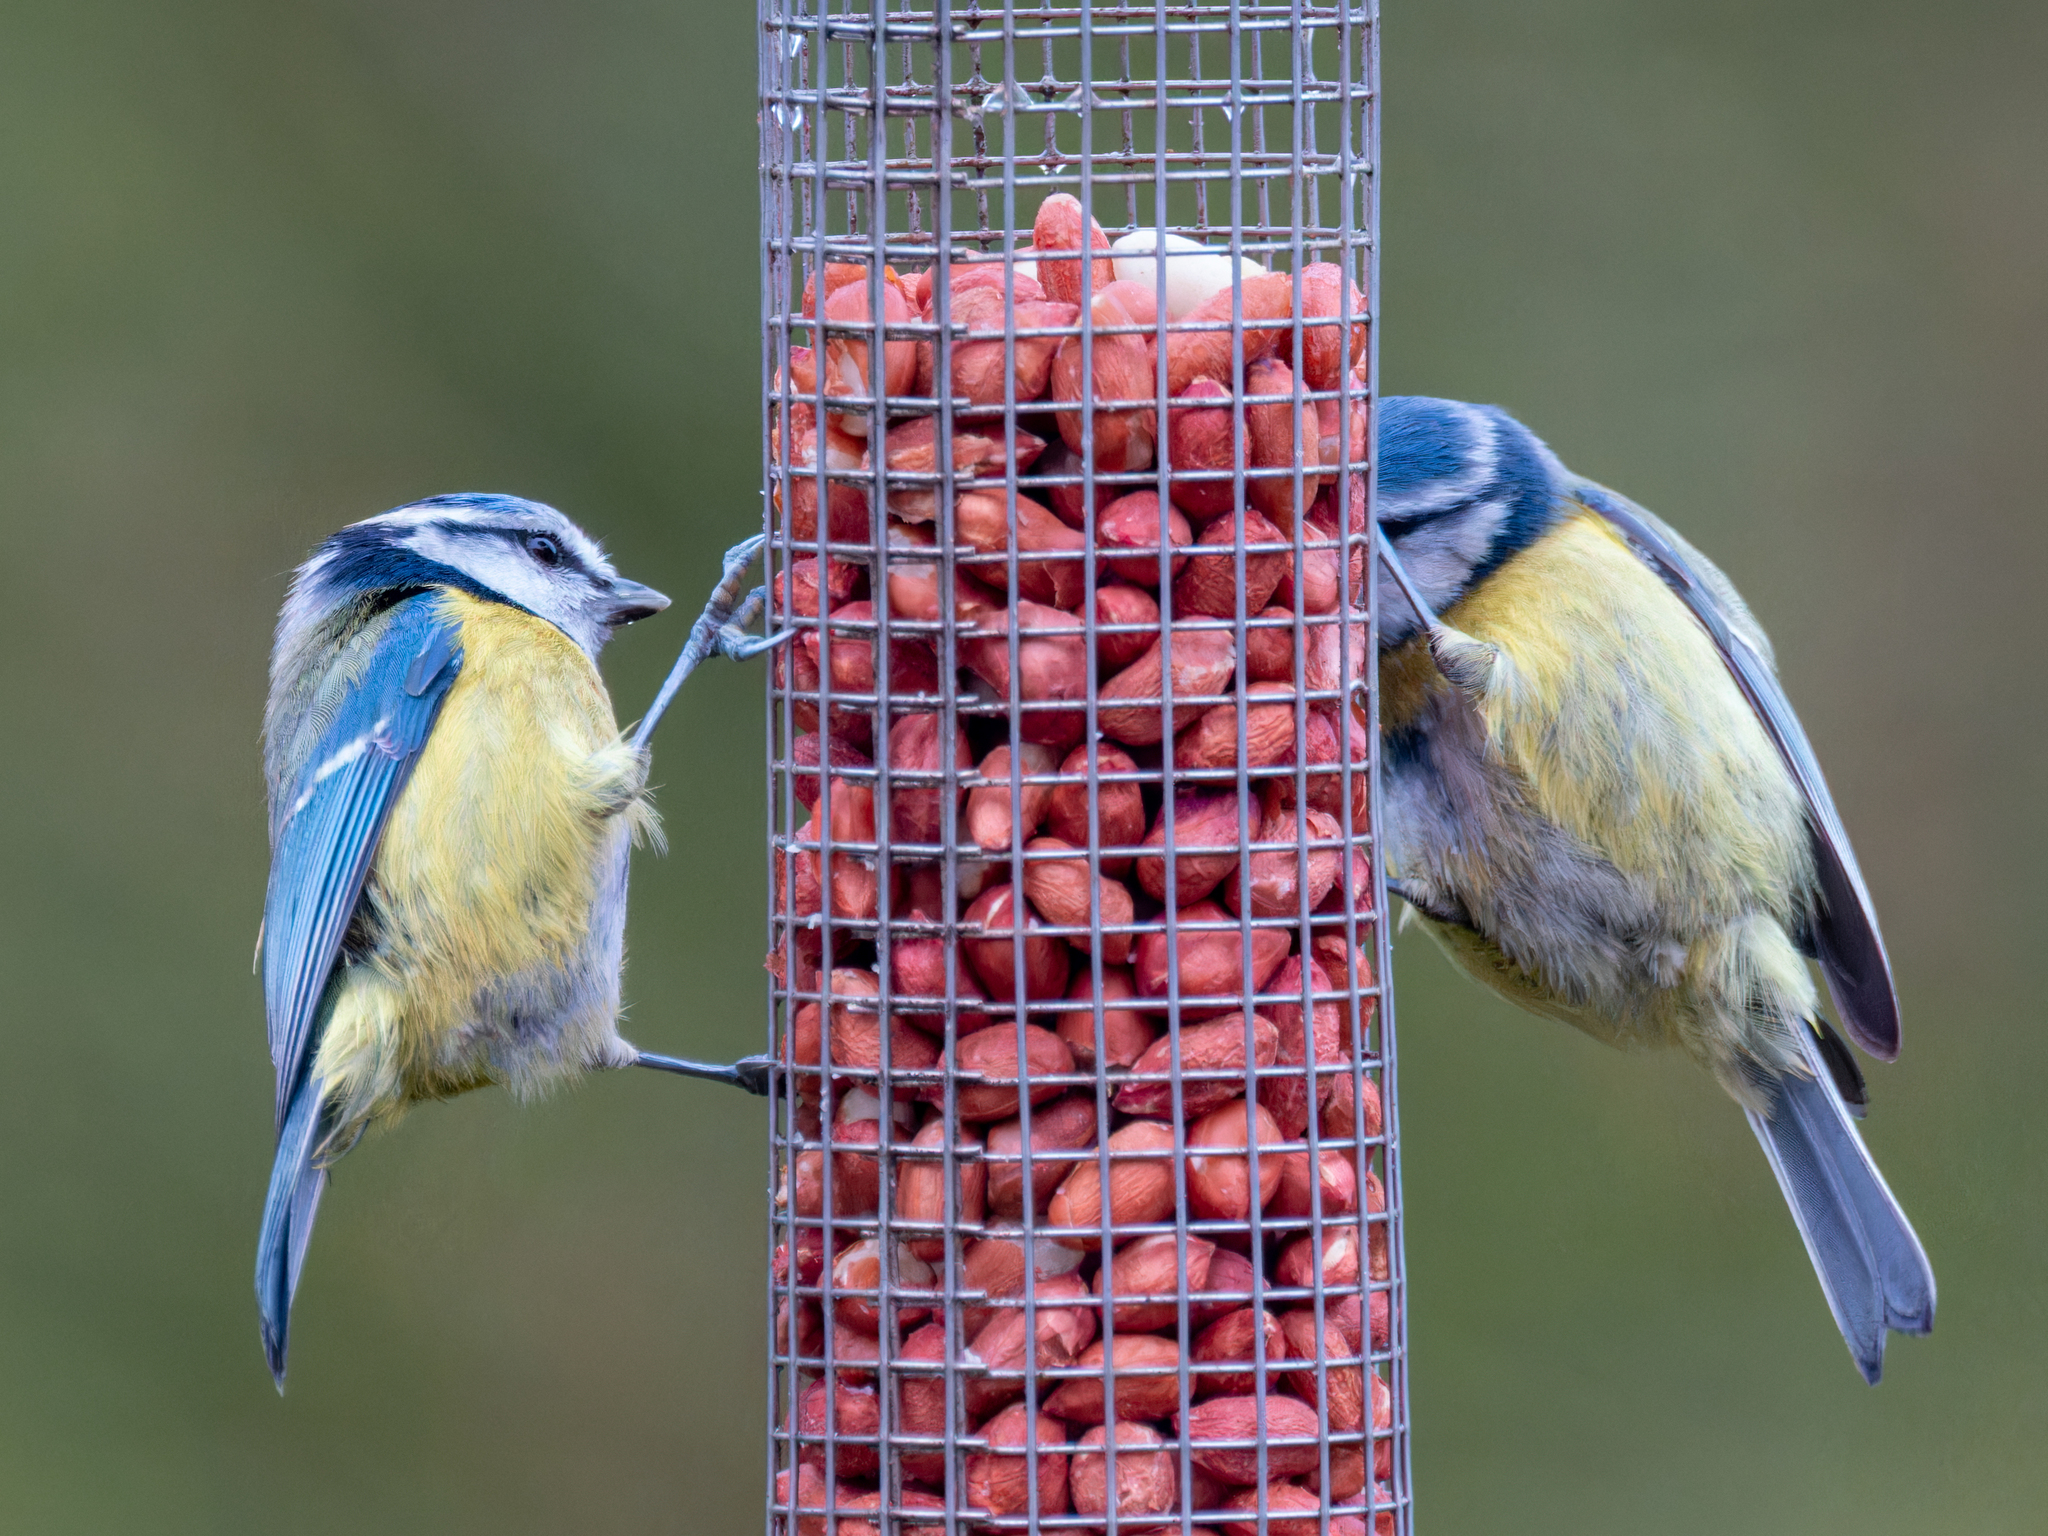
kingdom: Animalia
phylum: Chordata
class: Aves
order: Passeriformes
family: Paridae
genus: Cyanistes
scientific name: Cyanistes caeruleus
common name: Eurasian blue tit
